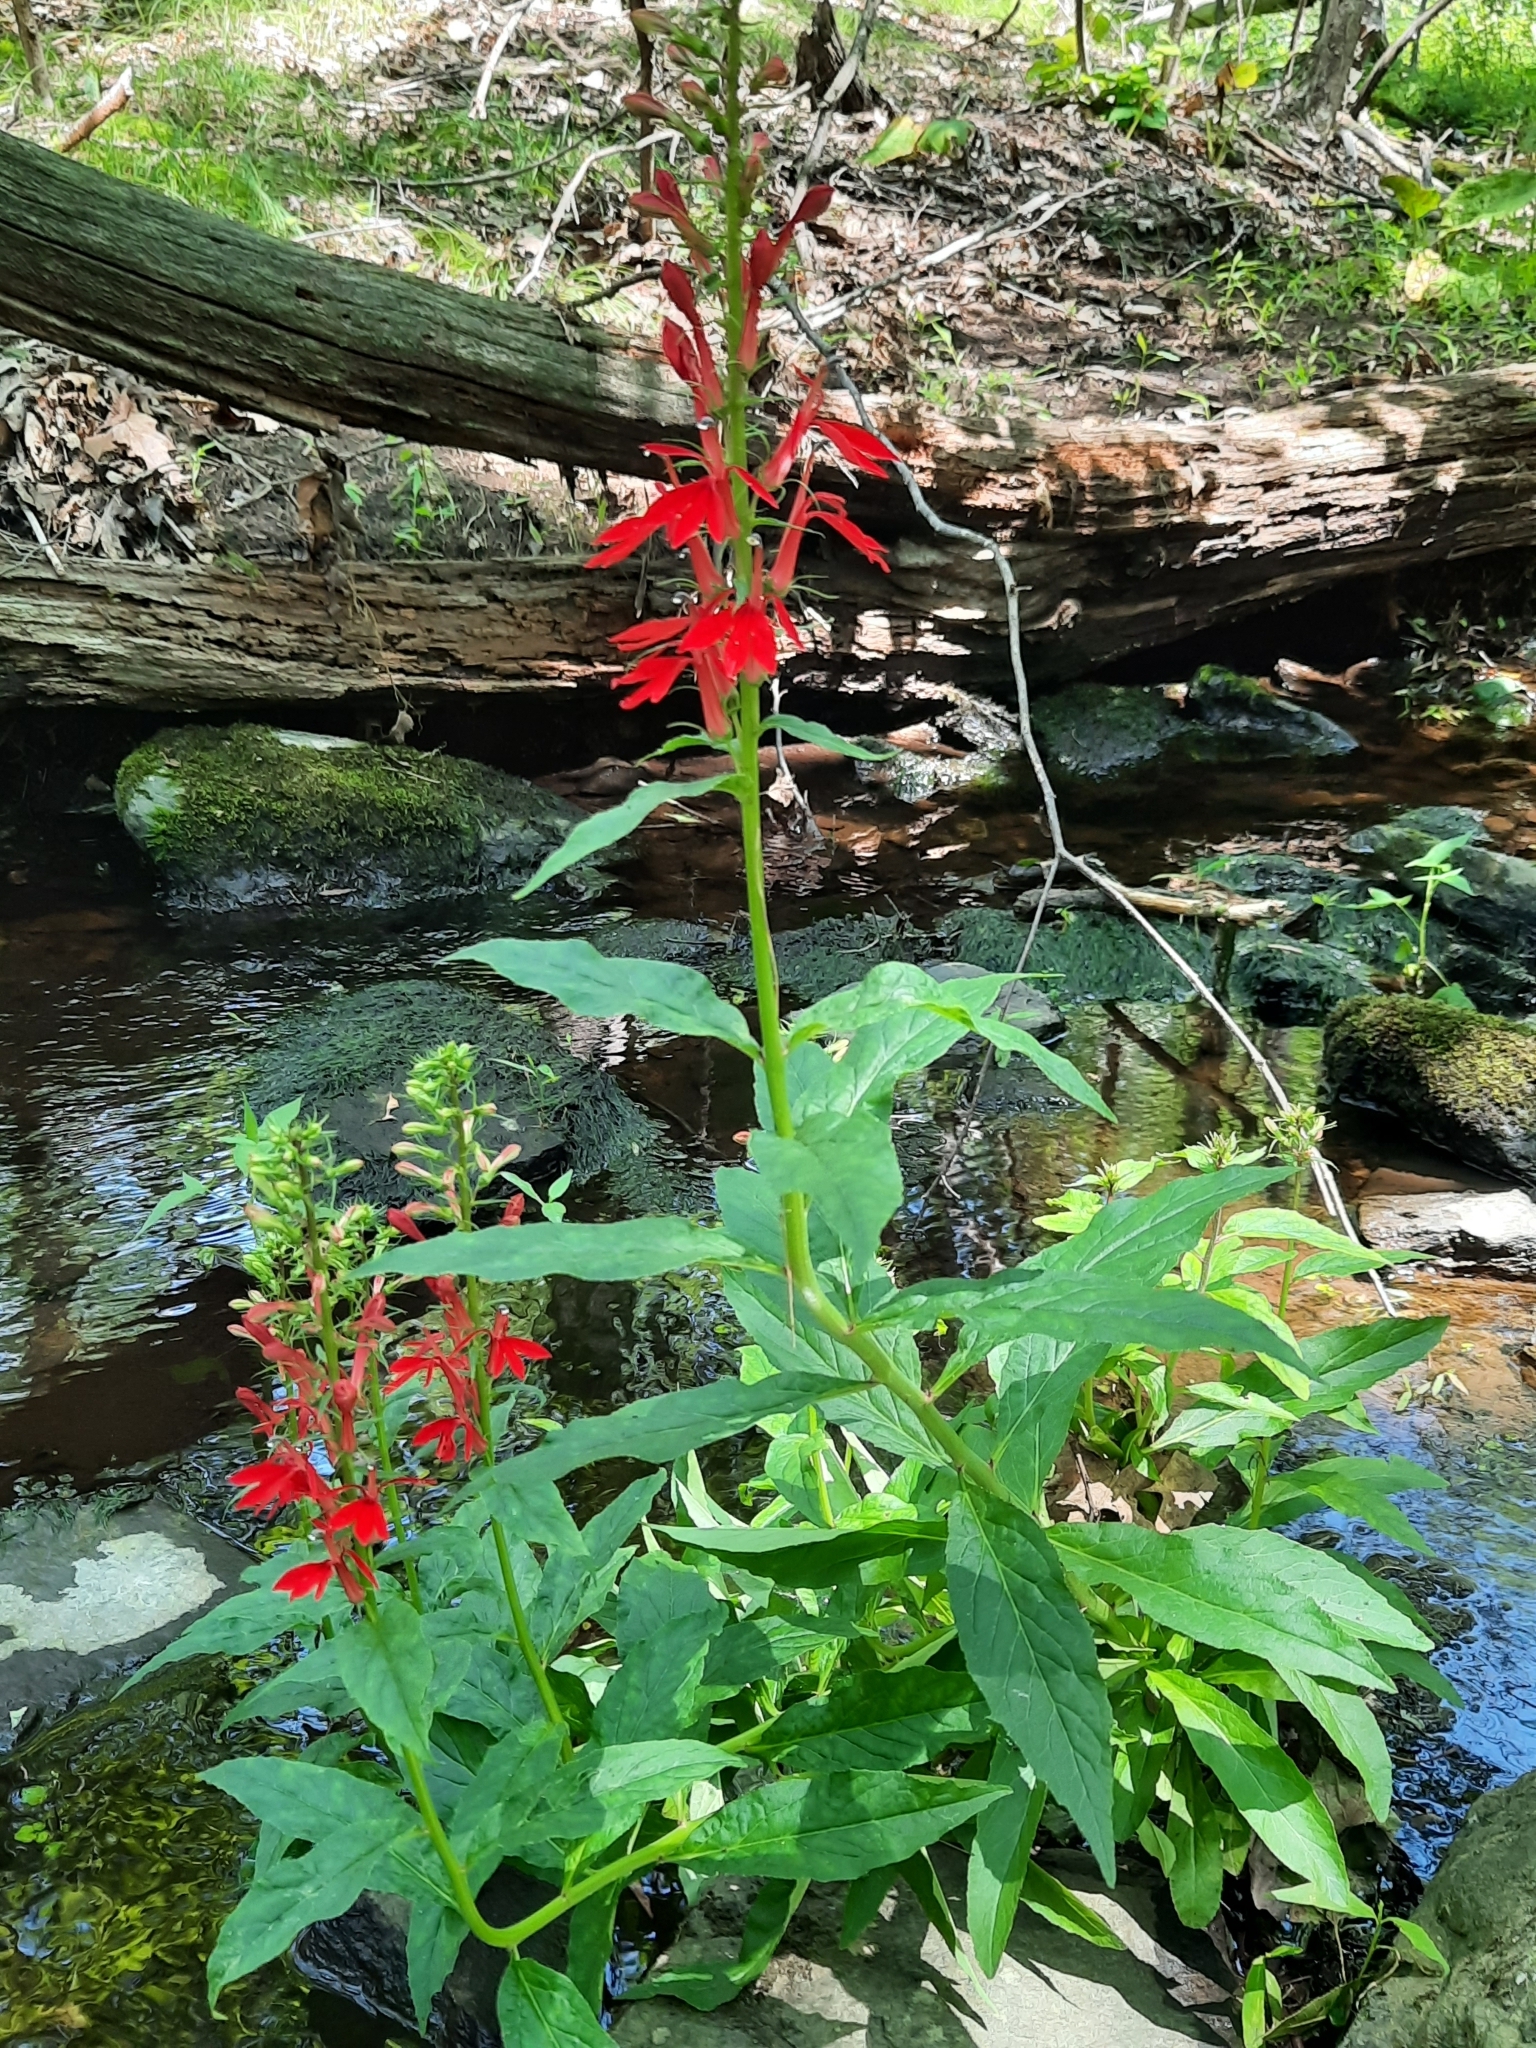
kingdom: Plantae
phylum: Tracheophyta
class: Magnoliopsida
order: Asterales
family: Campanulaceae
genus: Lobelia
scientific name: Lobelia cardinalis
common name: Cardinal flower
